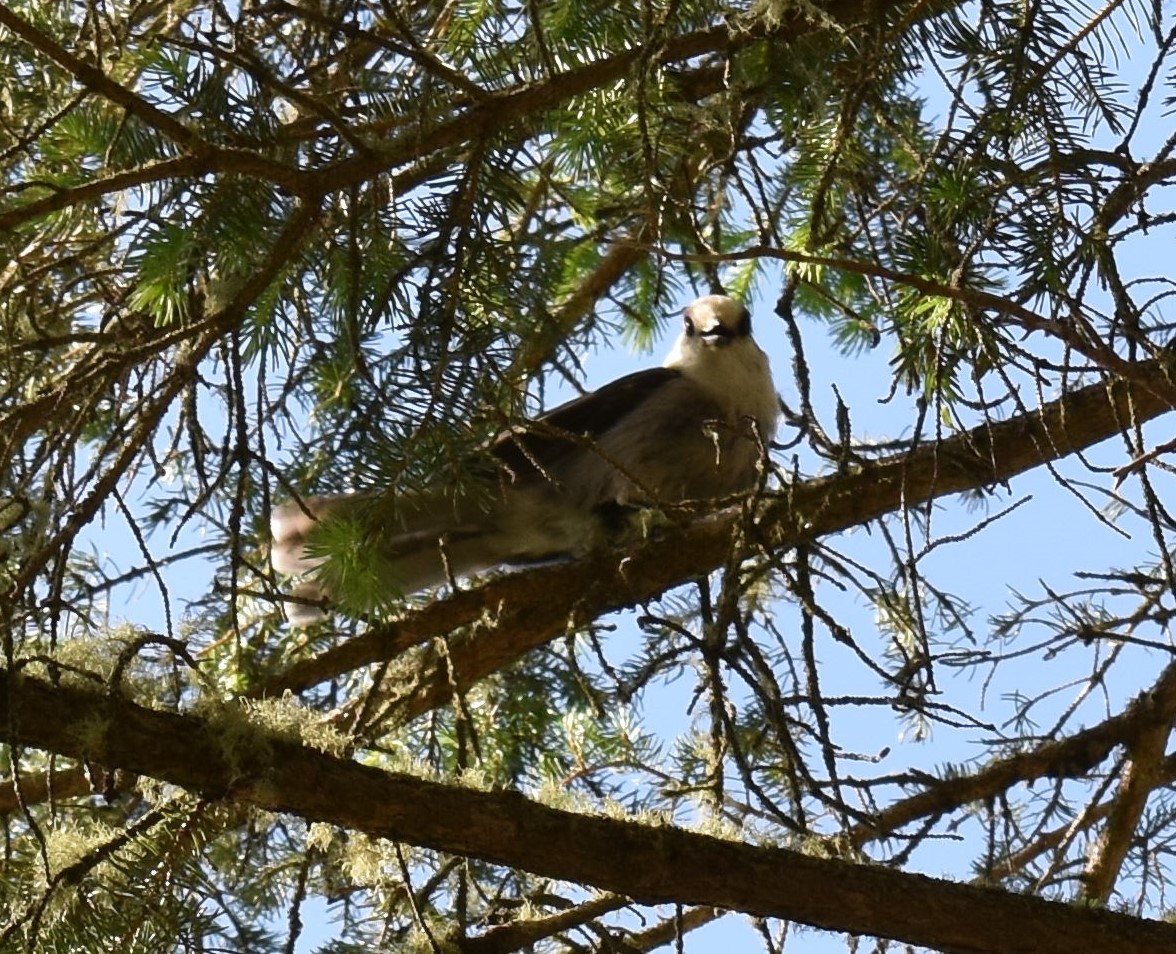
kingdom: Animalia
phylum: Chordata
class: Aves
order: Passeriformes
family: Corvidae
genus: Perisoreus
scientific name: Perisoreus canadensis
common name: Gray jay
